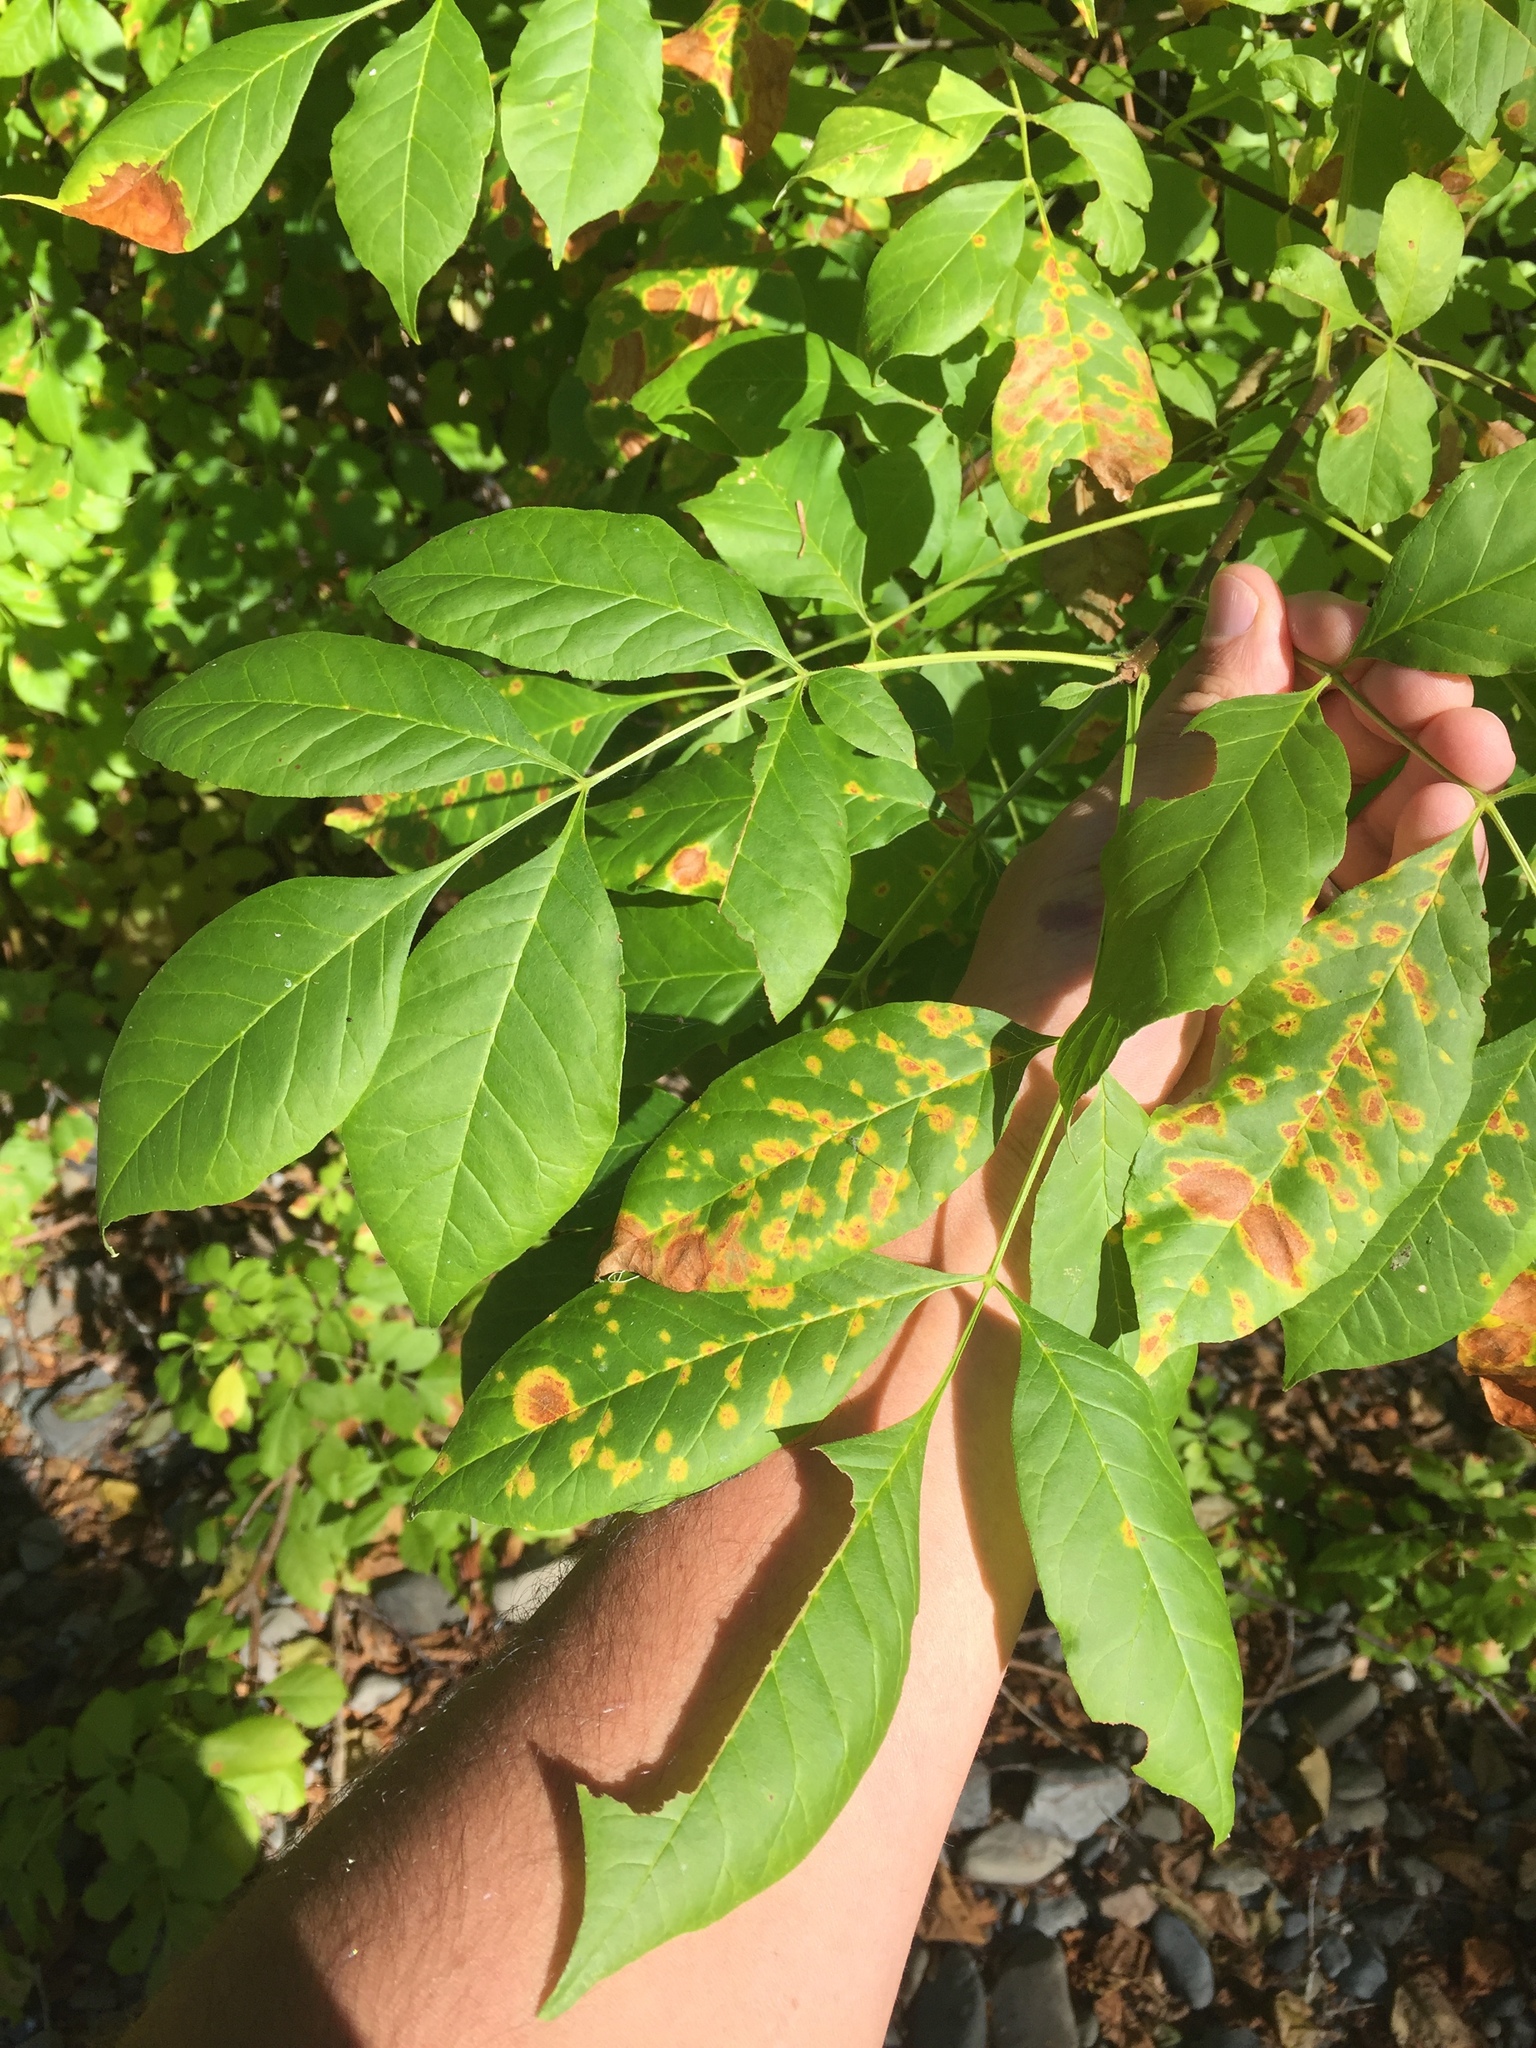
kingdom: Plantae
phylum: Tracheophyta
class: Magnoliopsida
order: Lamiales
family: Oleaceae
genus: Fraxinus
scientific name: Fraxinus latifolia
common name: Oregon ash
